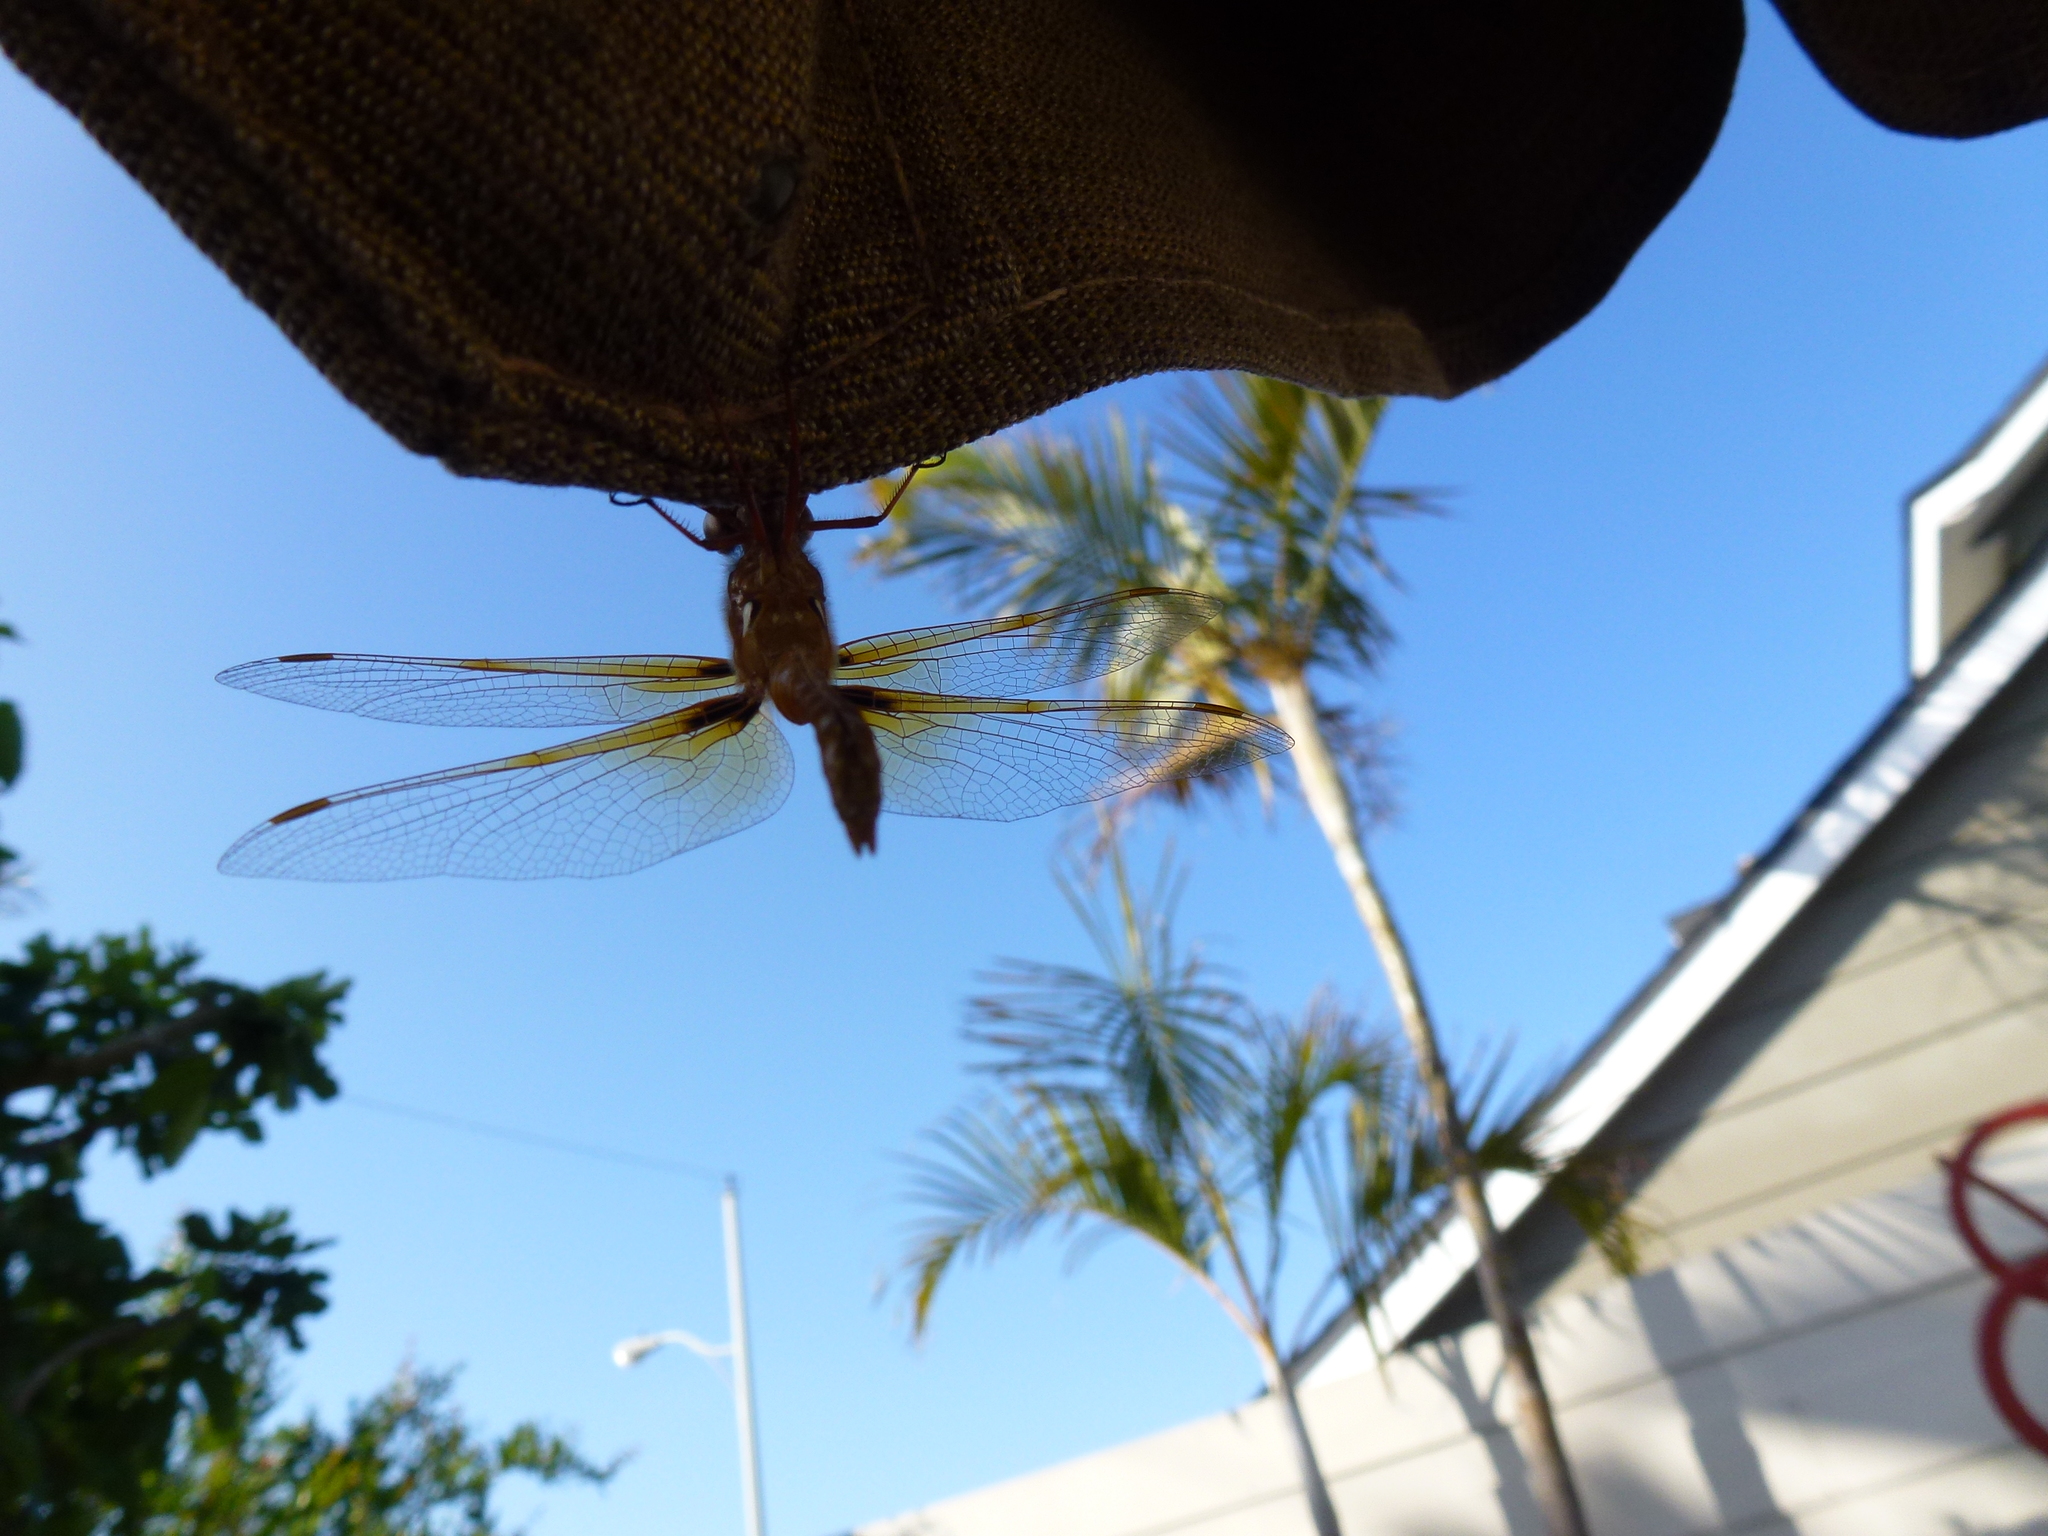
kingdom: Animalia
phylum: Arthropoda
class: Insecta
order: Odonata
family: Libellulidae
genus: Sympetrum
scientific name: Sympetrum illotum
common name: Cardinal meadowhawk
